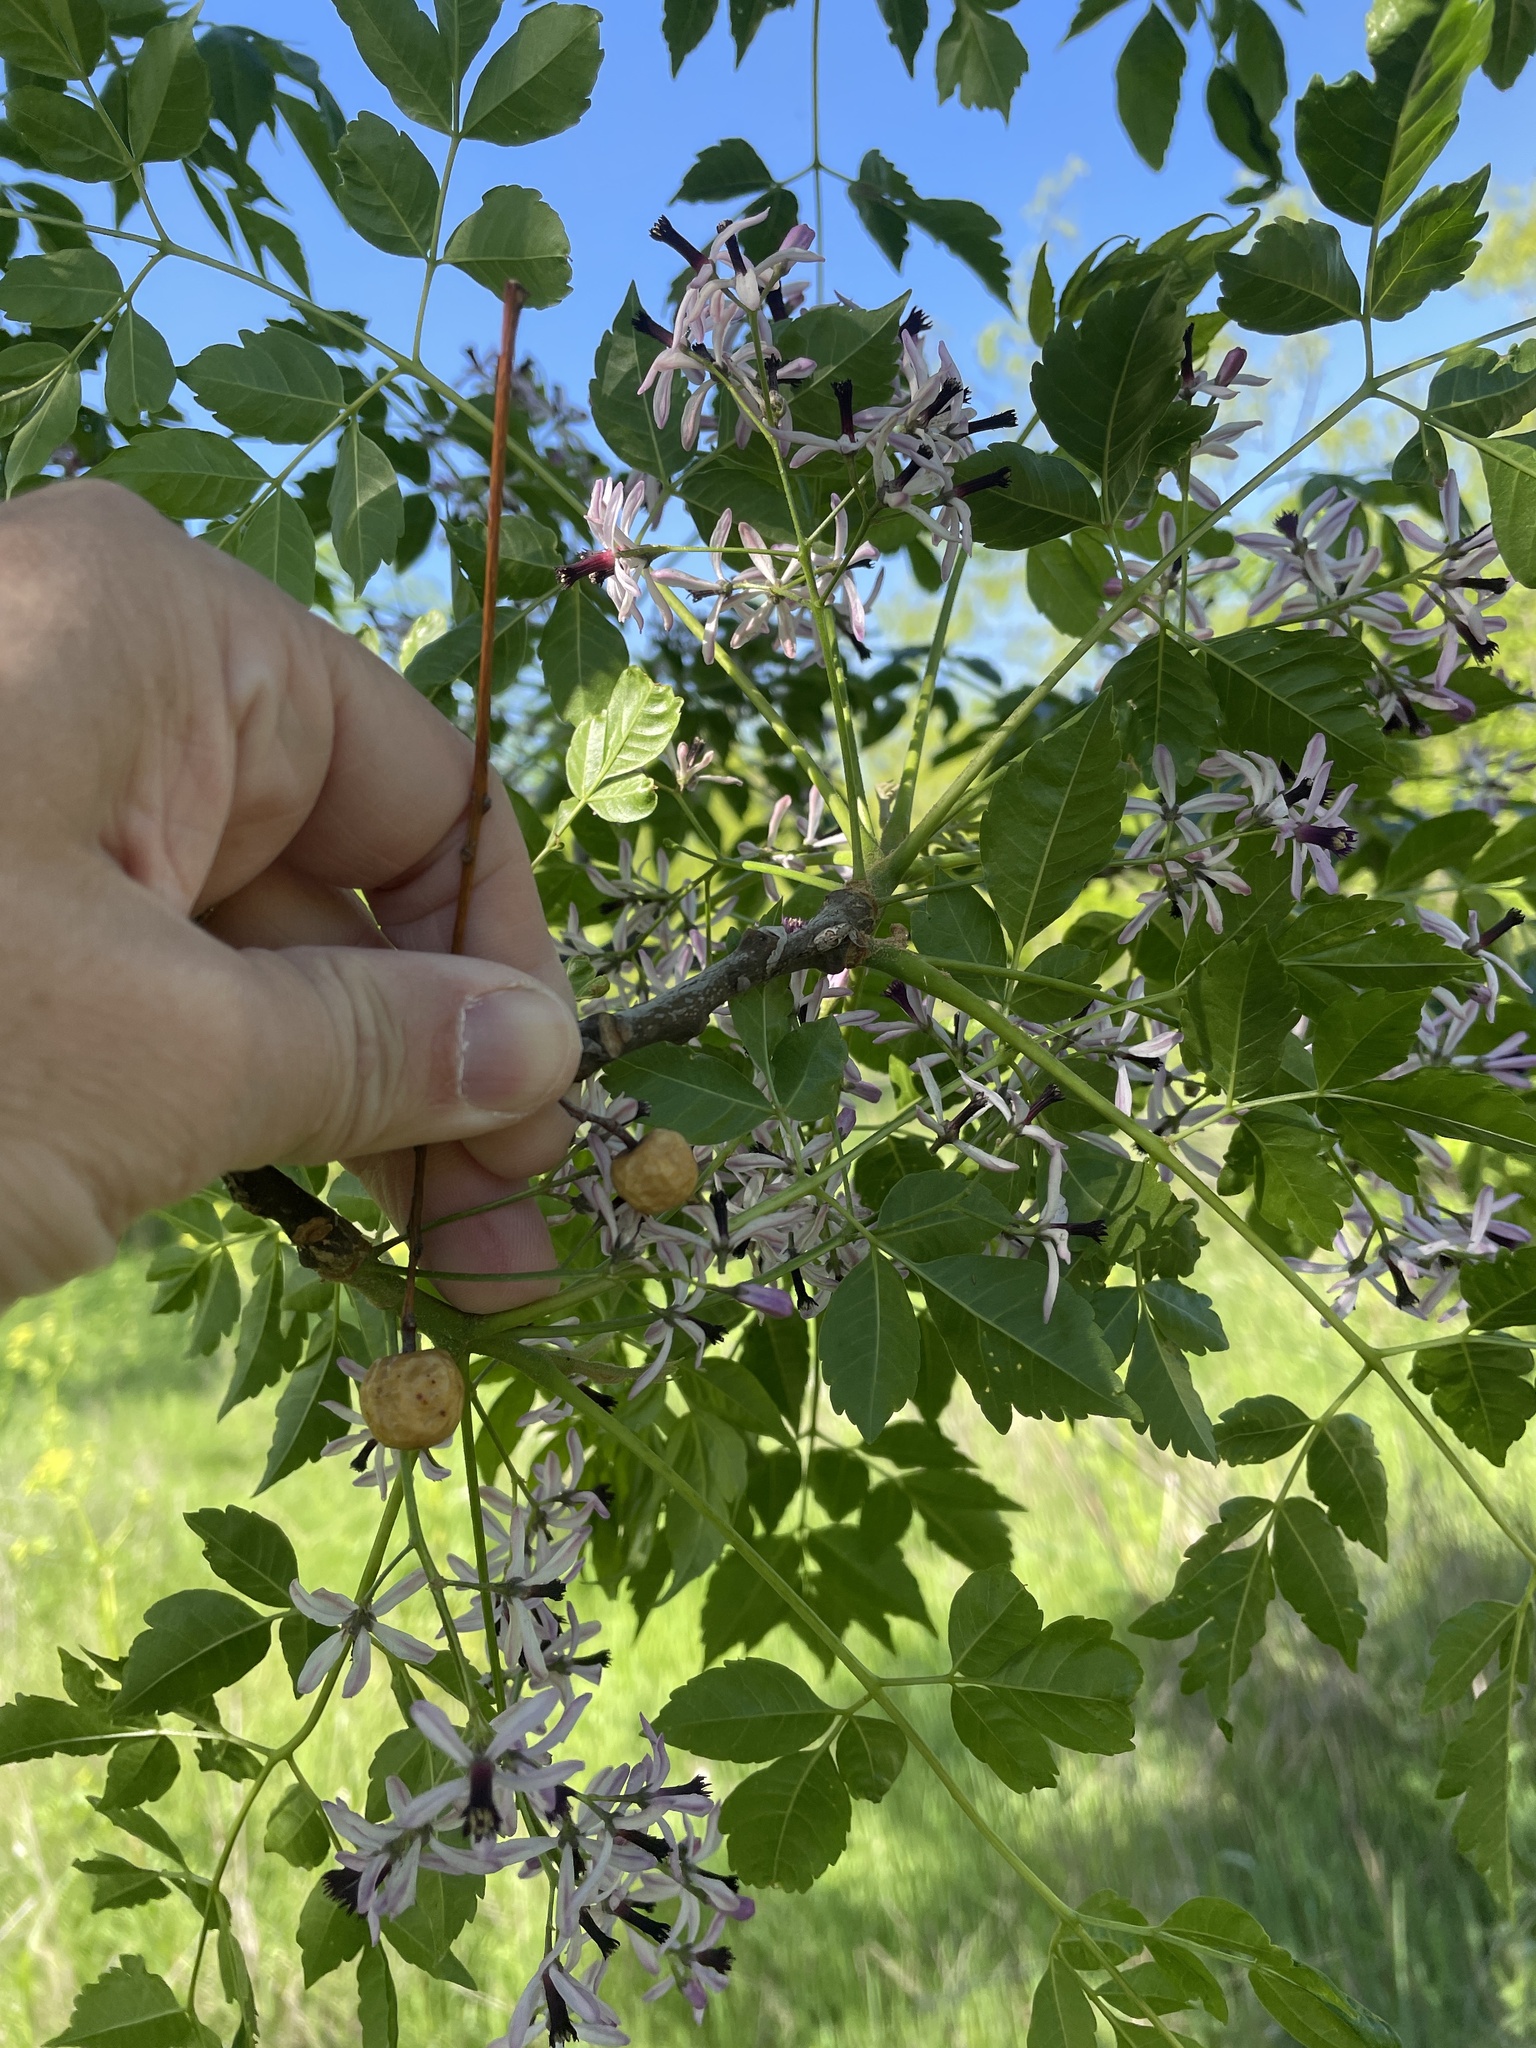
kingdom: Plantae
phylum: Tracheophyta
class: Magnoliopsida
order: Sapindales
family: Meliaceae
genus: Melia
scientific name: Melia azedarach
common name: Chinaberrytree
